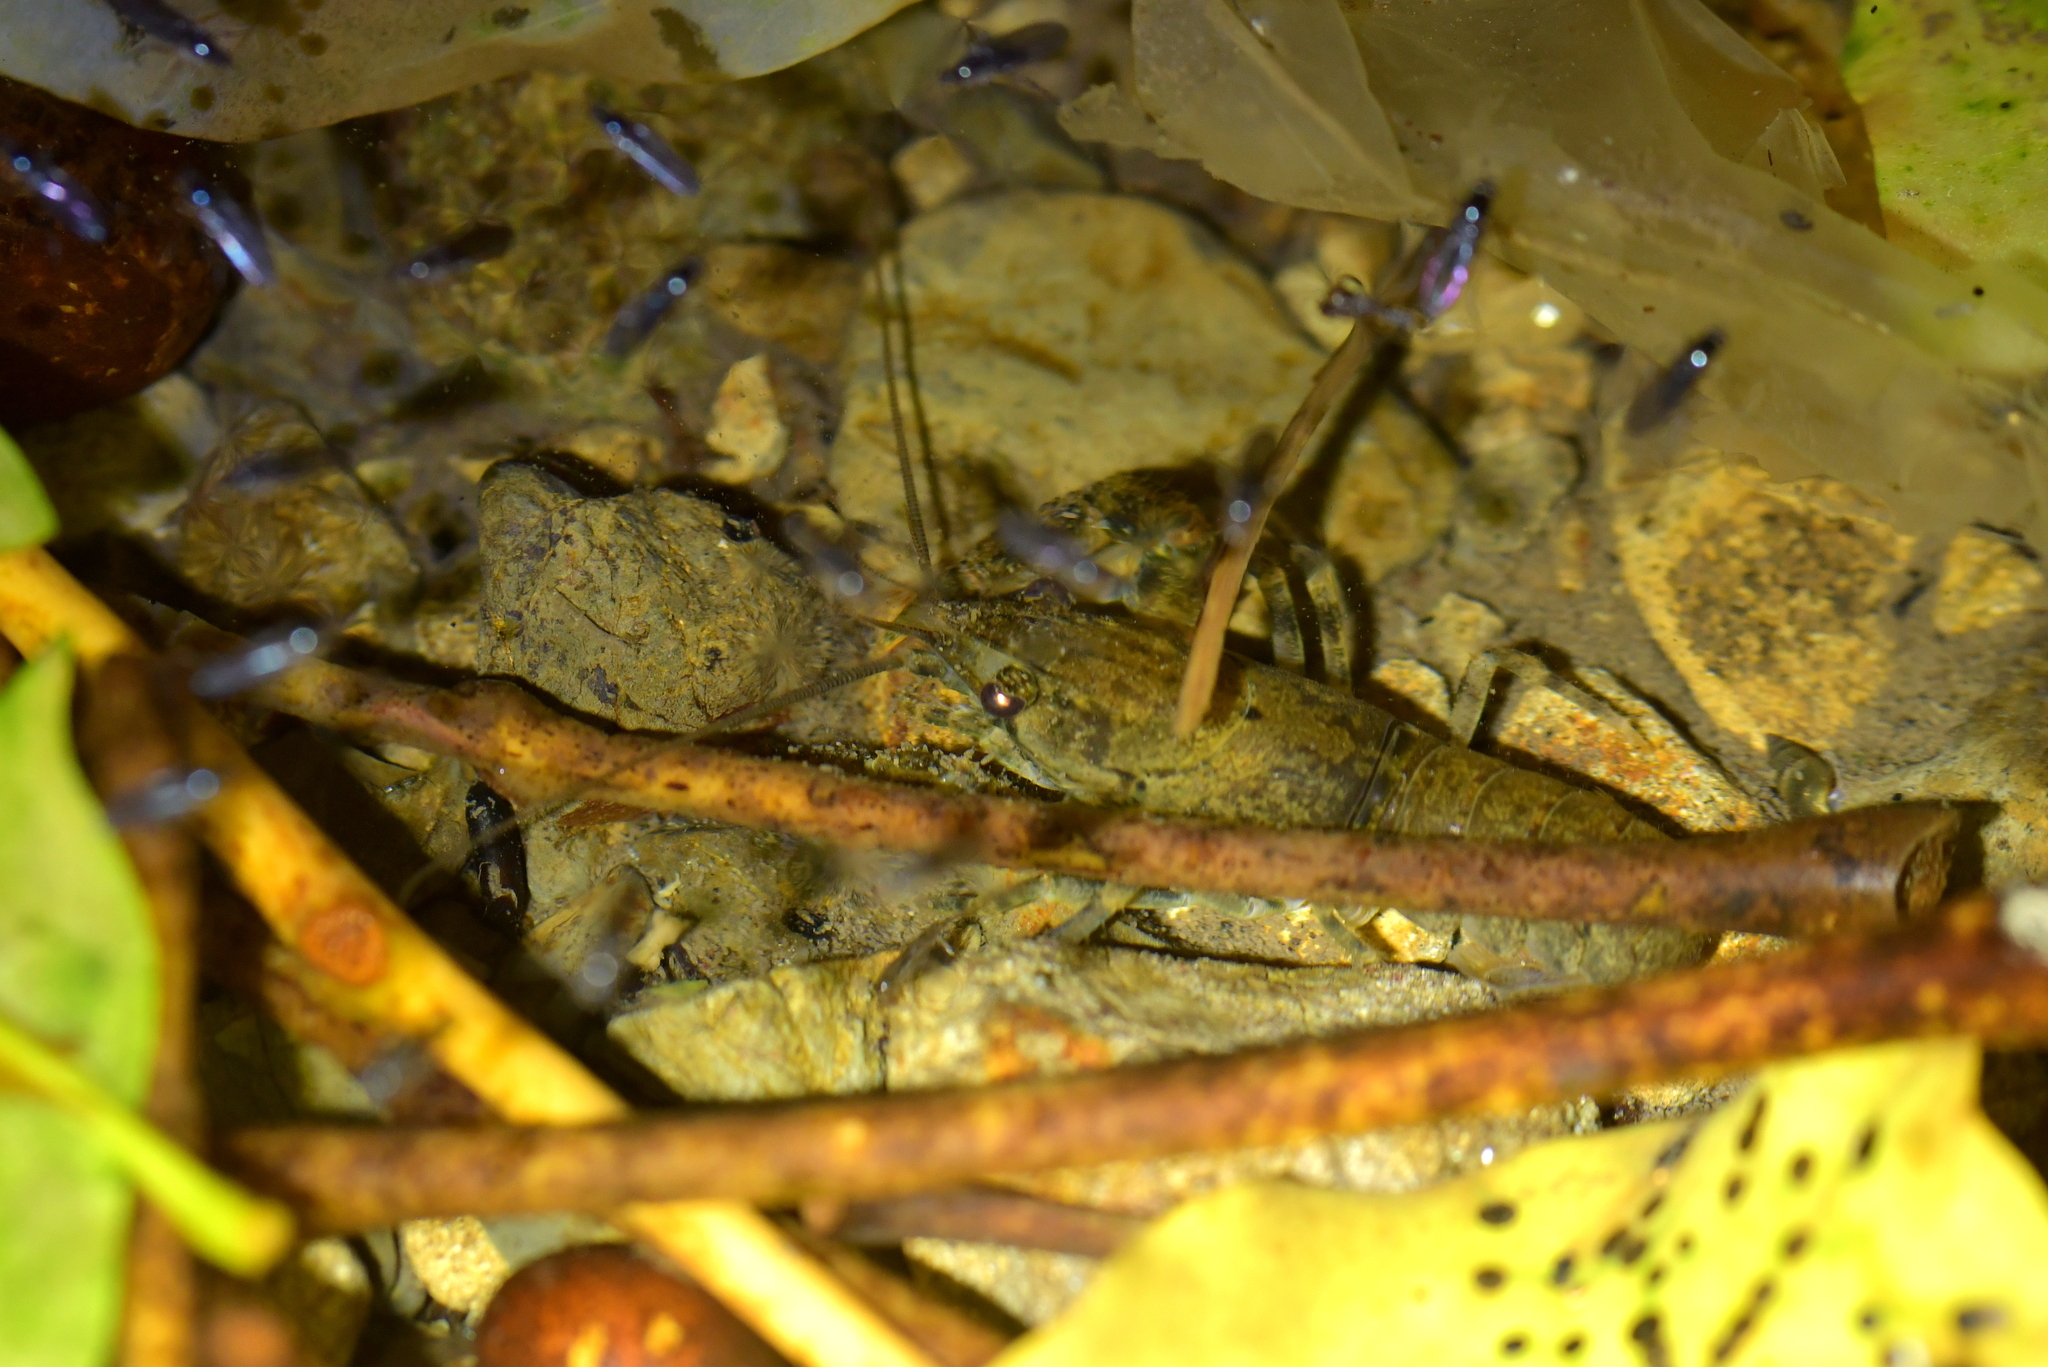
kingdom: Animalia
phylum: Arthropoda
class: Malacostraca
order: Decapoda
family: Parastacidae
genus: Paranephrops
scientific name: Paranephrops planifrons
